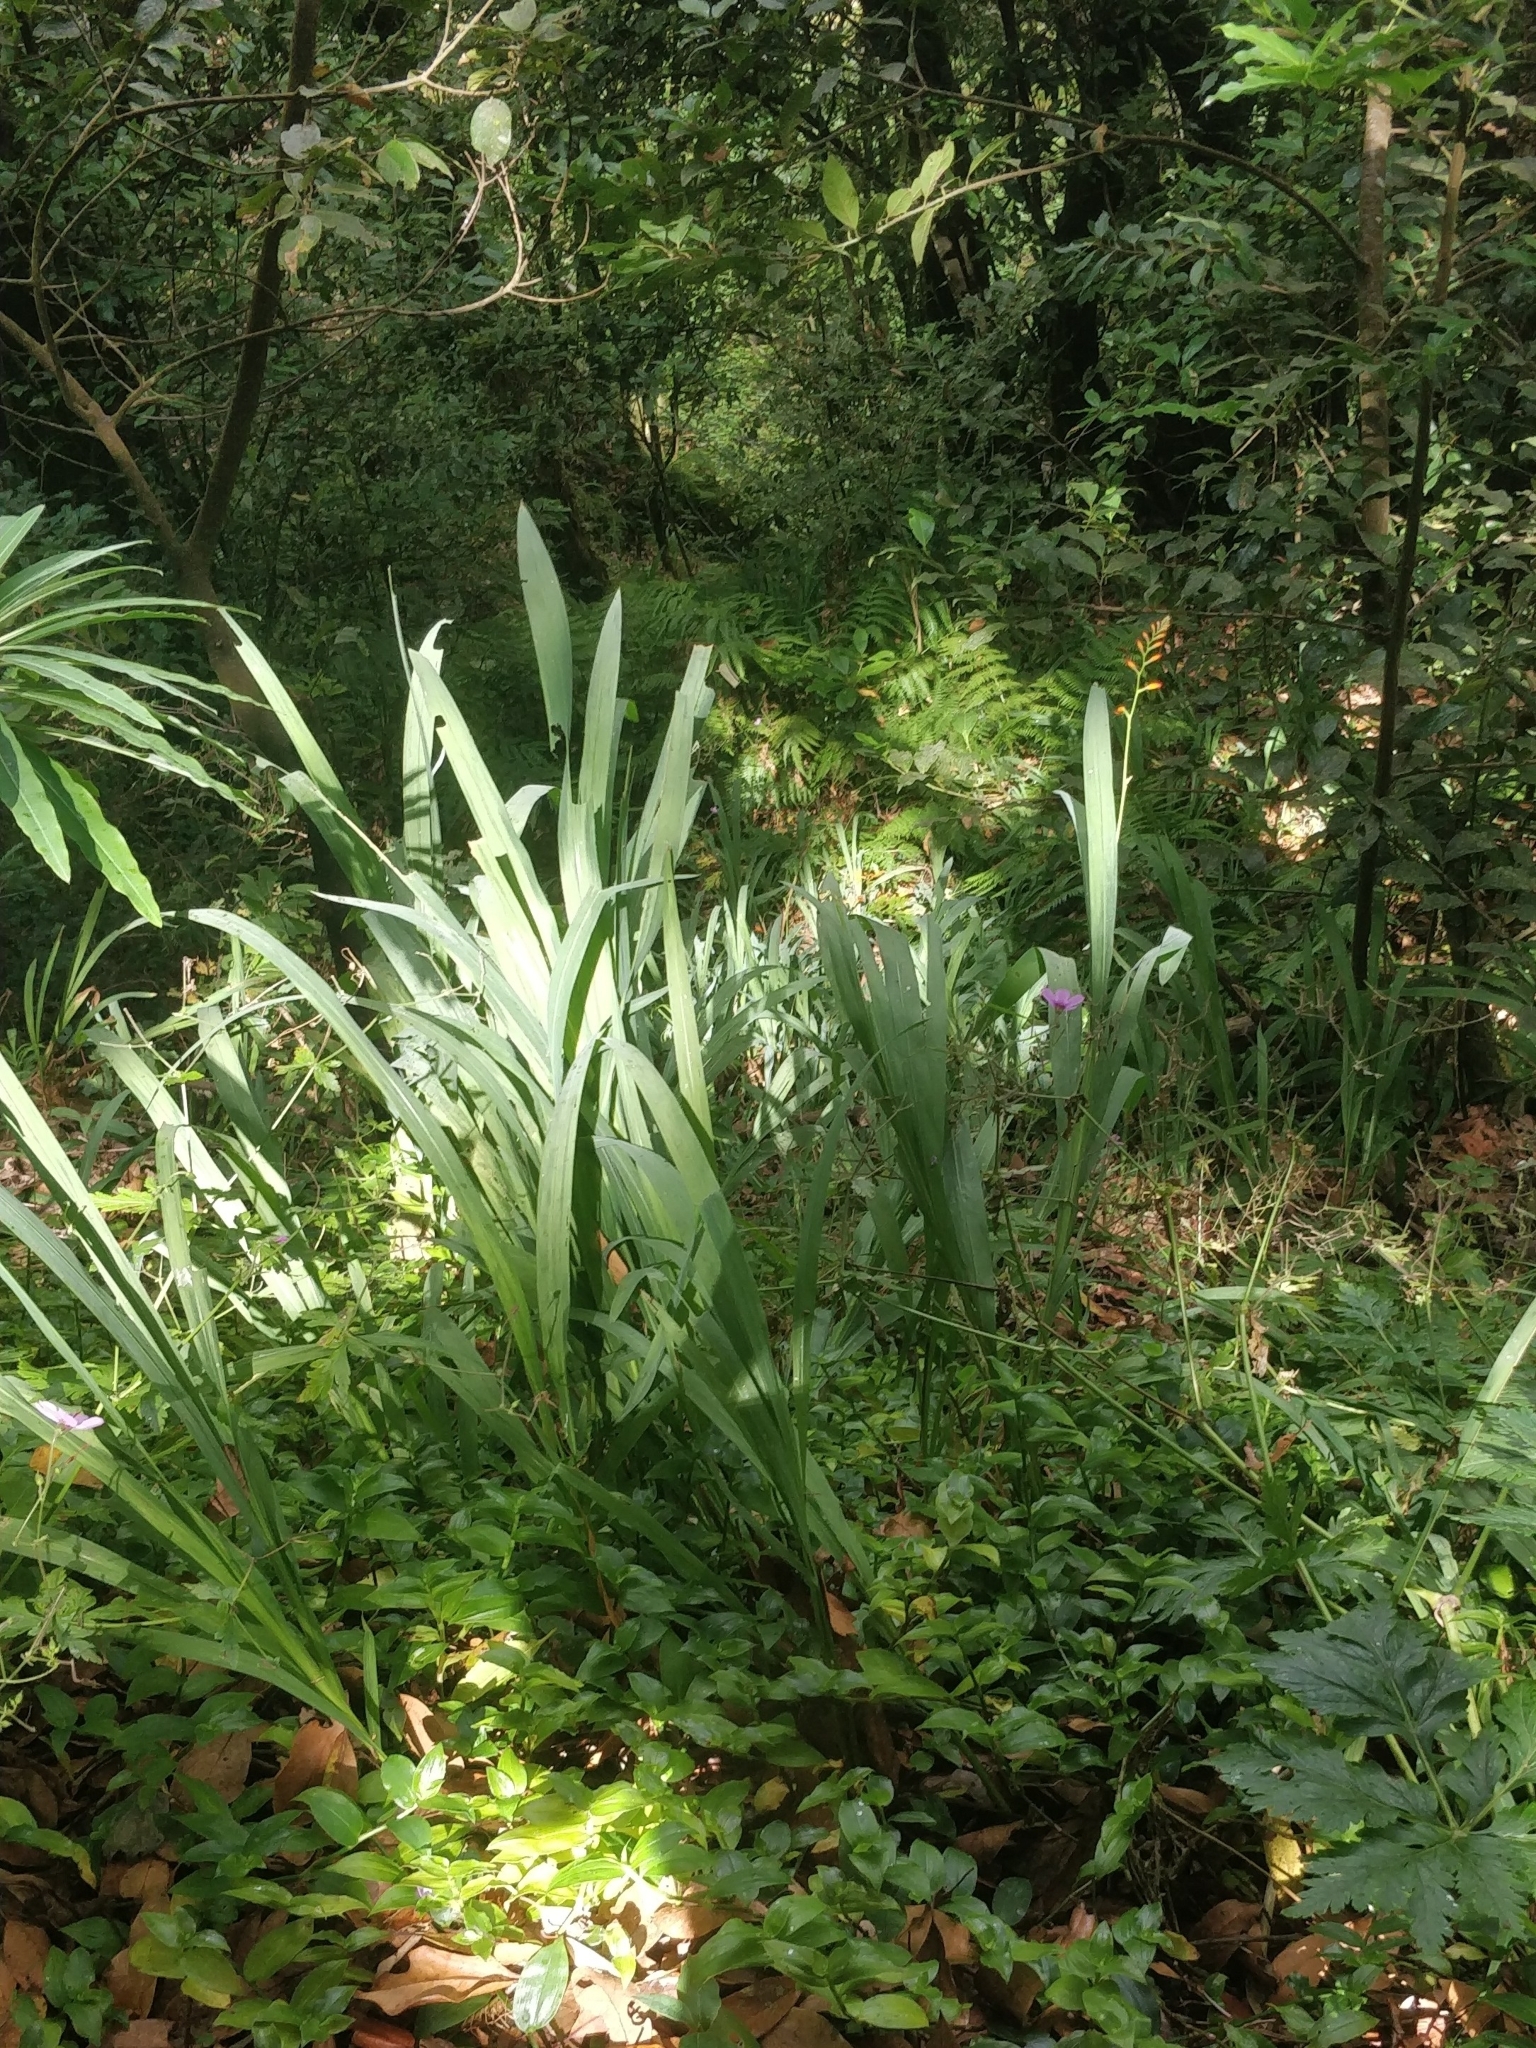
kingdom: Plantae
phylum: Tracheophyta
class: Liliopsida
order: Asparagales
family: Iridaceae
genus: Crocosmia
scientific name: Crocosmia crocosmiiflora
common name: Montbretia
